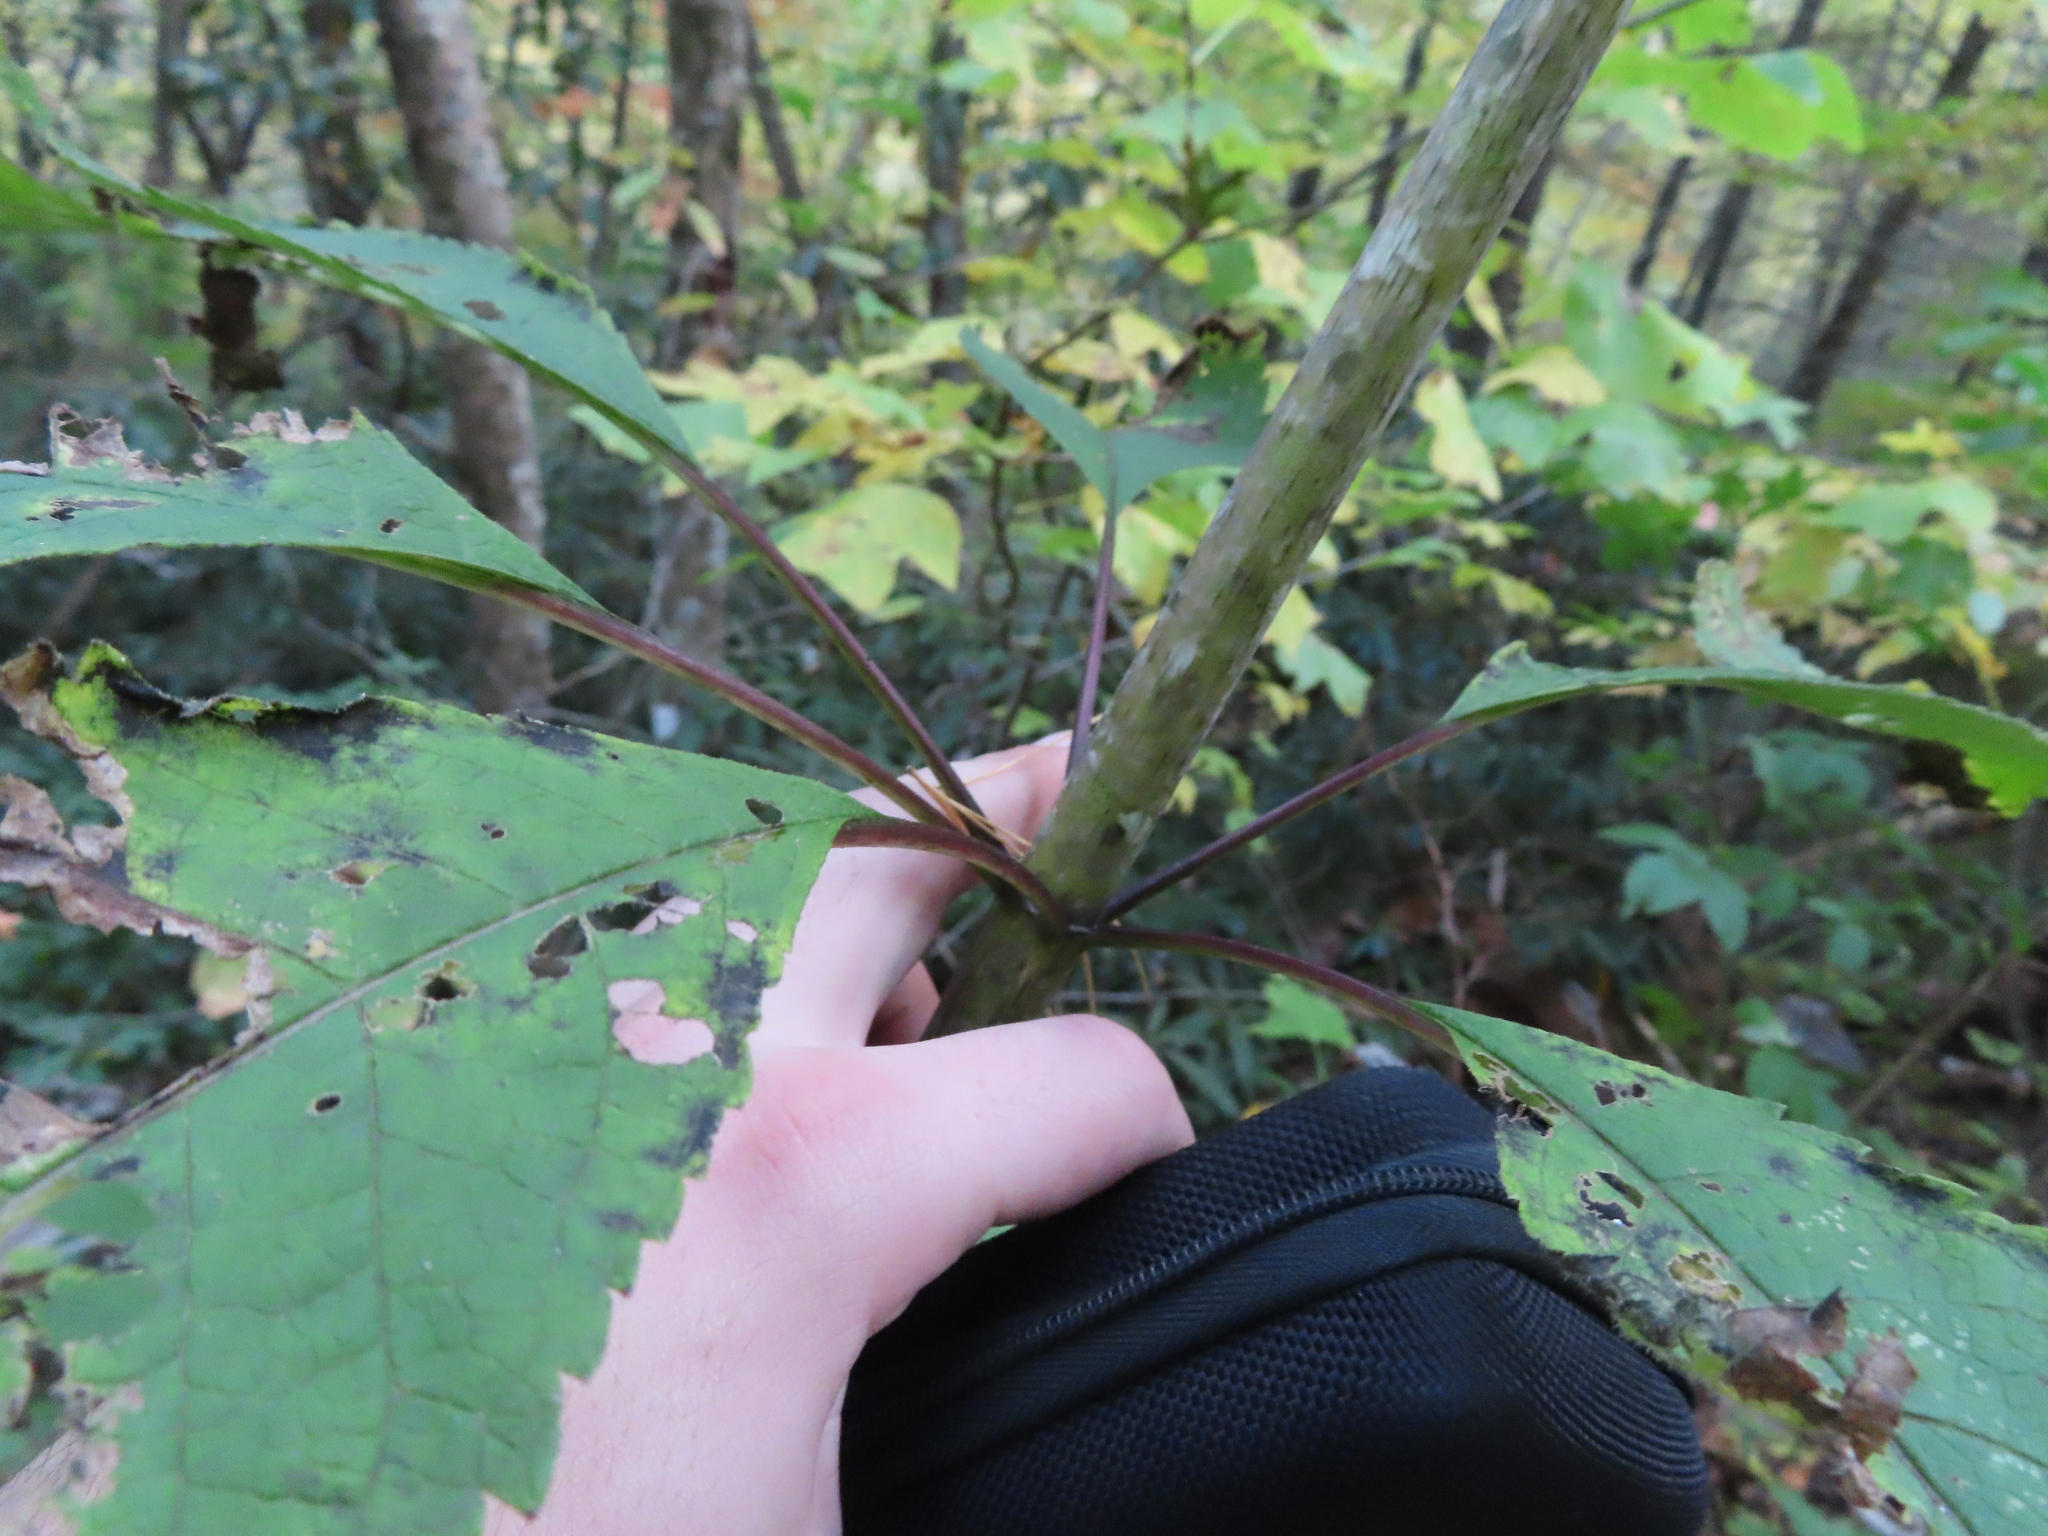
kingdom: Plantae
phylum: Tracheophyta
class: Magnoliopsida
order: Asterales
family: Asteraceae
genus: Eutrochium
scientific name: Eutrochium fistulosum
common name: Trumpetweed
